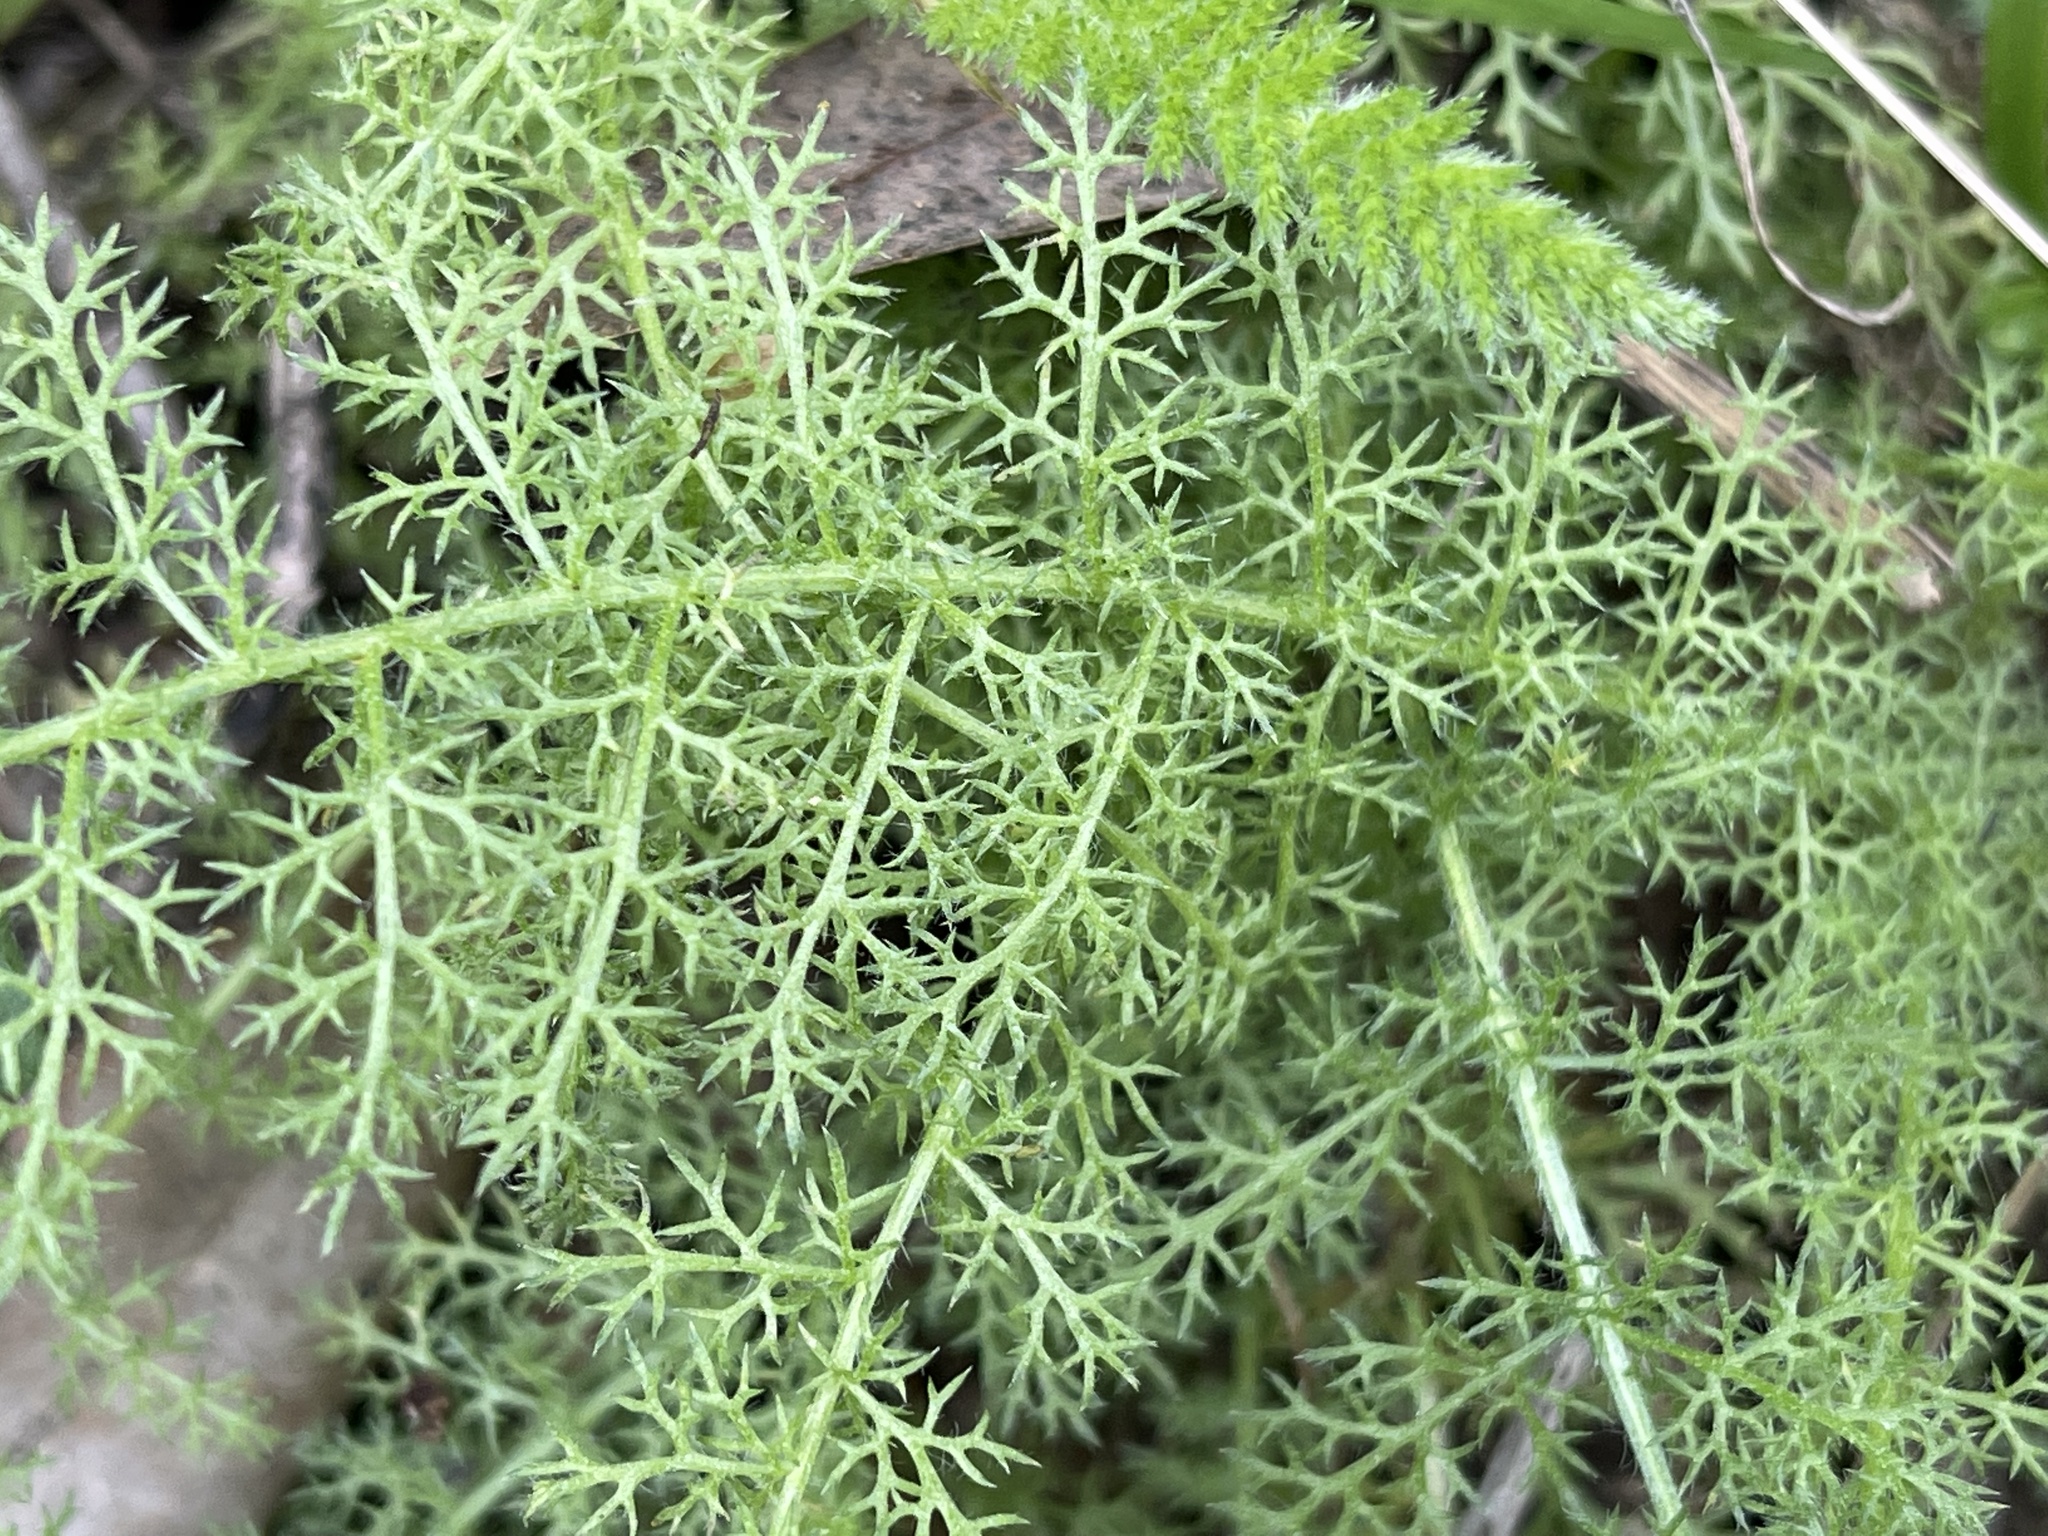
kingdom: Plantae
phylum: Tracheophyta
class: Magnoliopsida
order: Asterales
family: Asteraceae
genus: Achillea
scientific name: Achillea millefolium
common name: Yarrow
